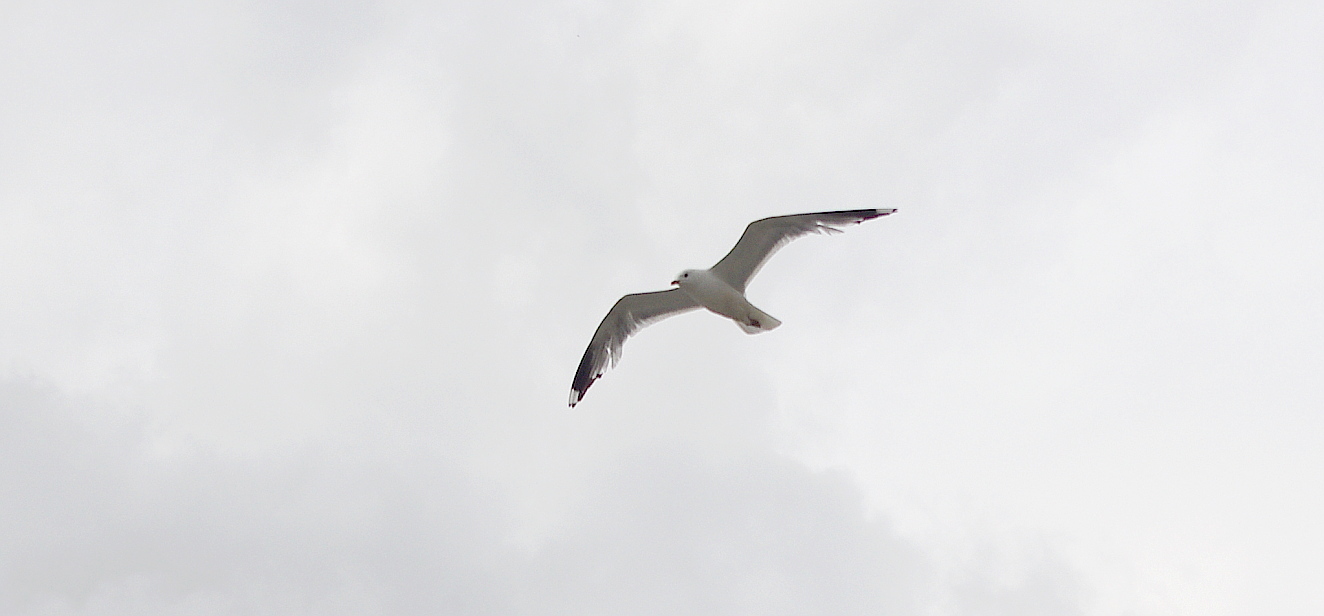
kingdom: Animalia
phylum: Chordata
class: Aves
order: Charadriiformes
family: Laridae
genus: Larus
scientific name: Larus canus
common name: Mew gull
